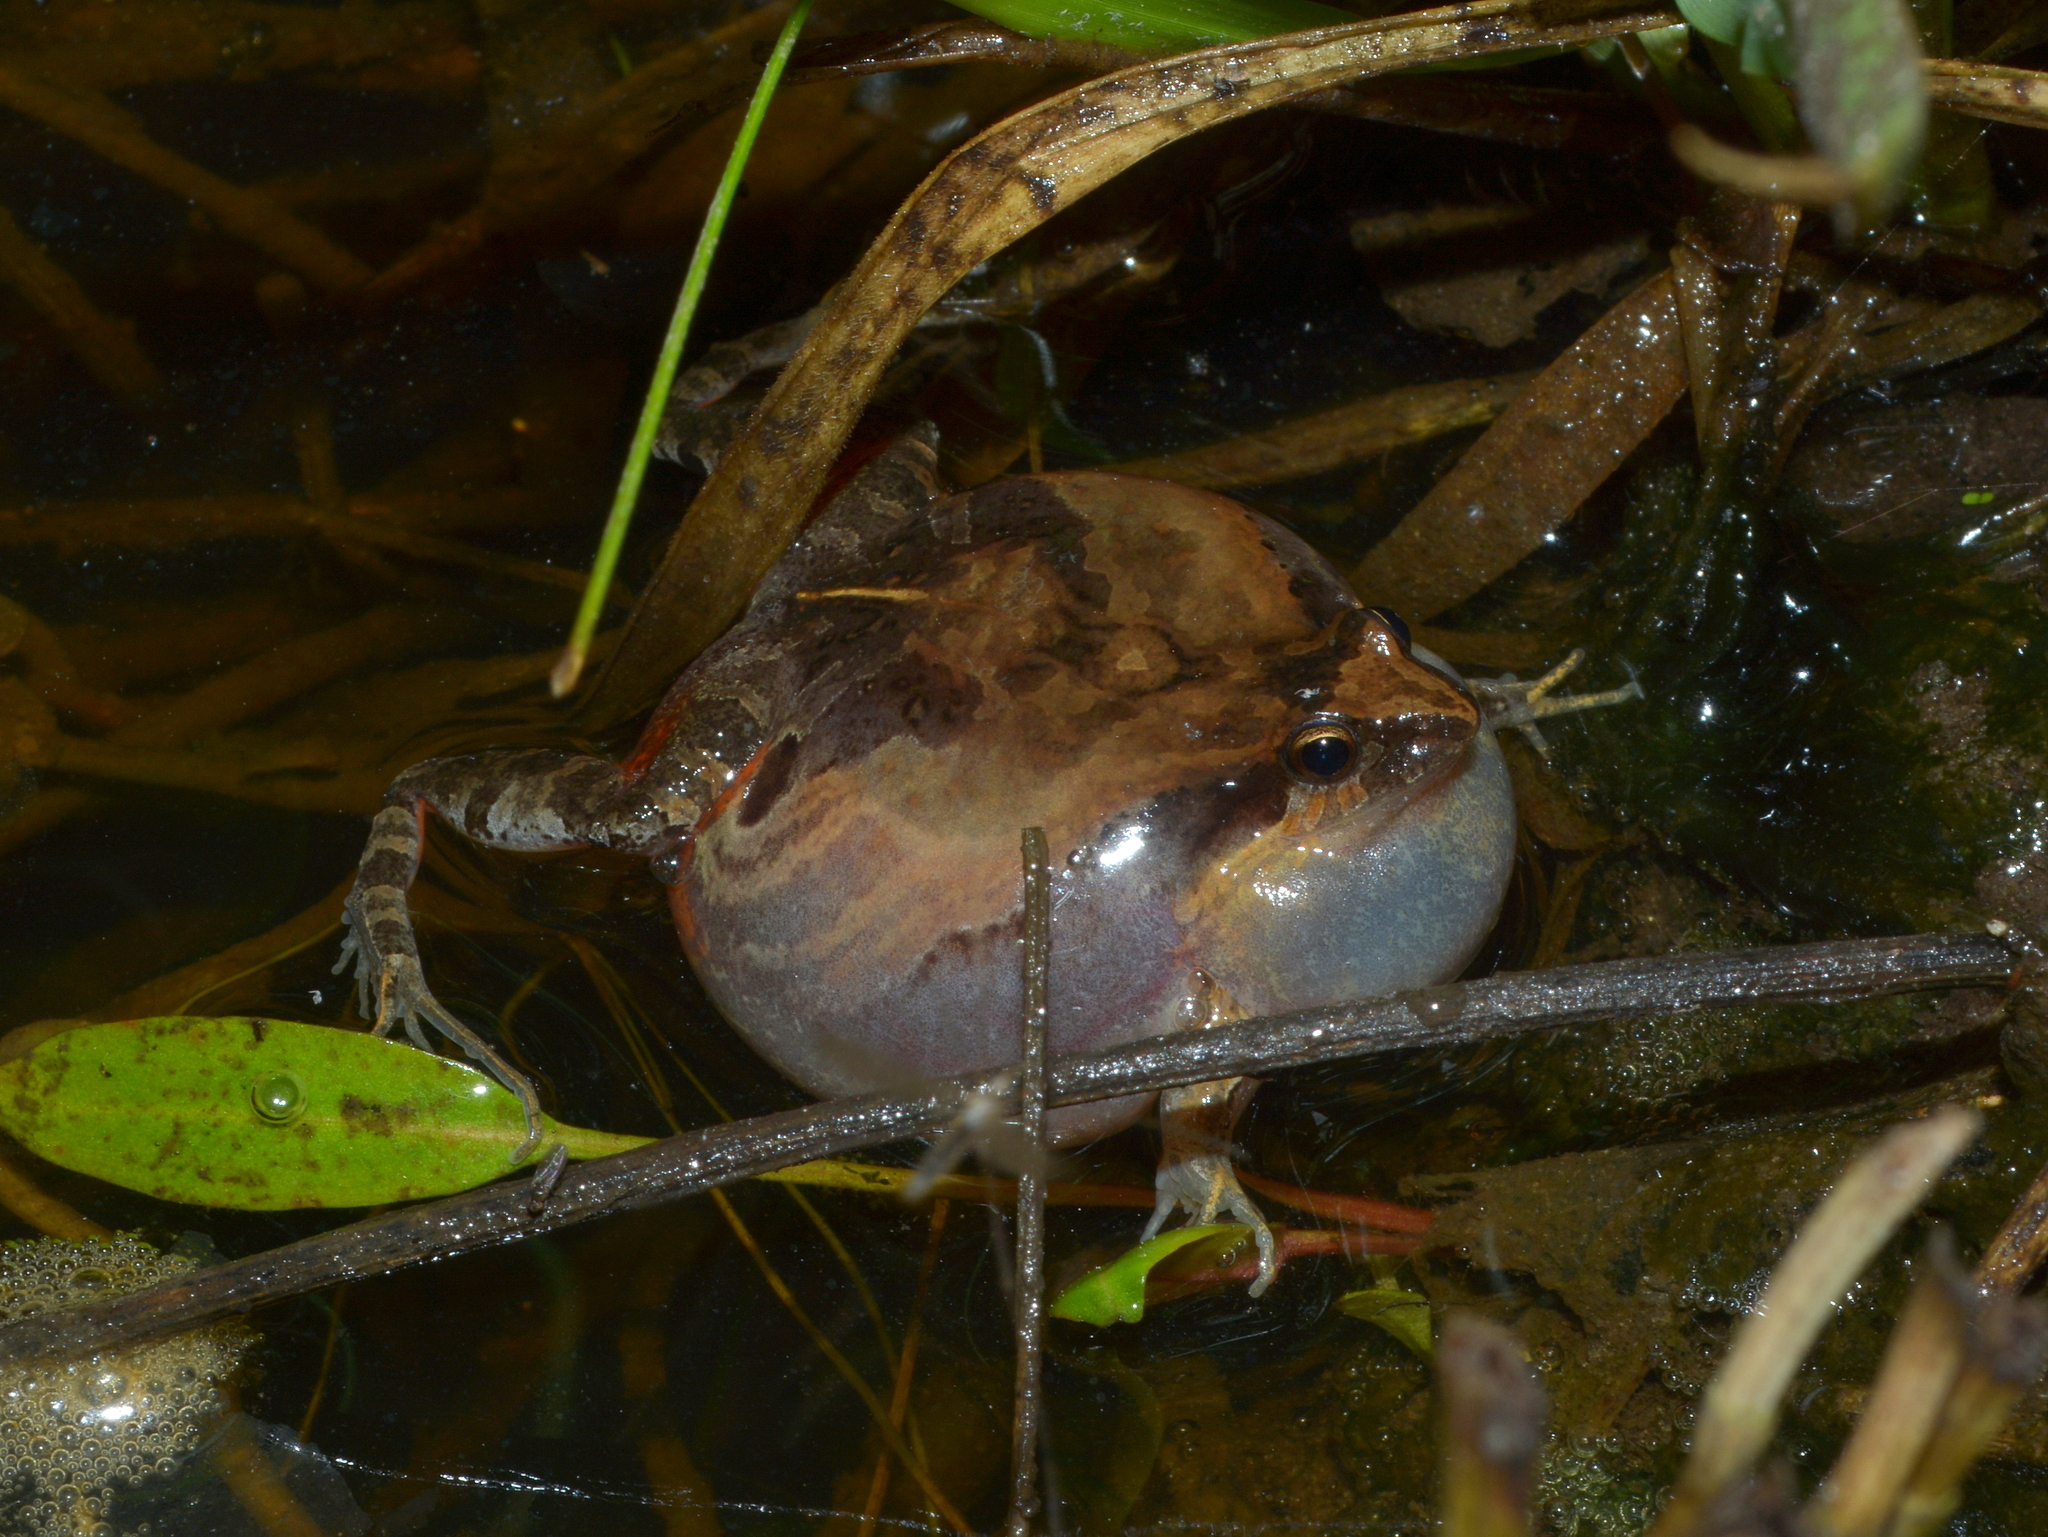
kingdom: Animalia
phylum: Chordata
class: Amphibia
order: Anura
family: Leptodactylidae
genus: Physalaemus
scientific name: Physalaemus gracilis
